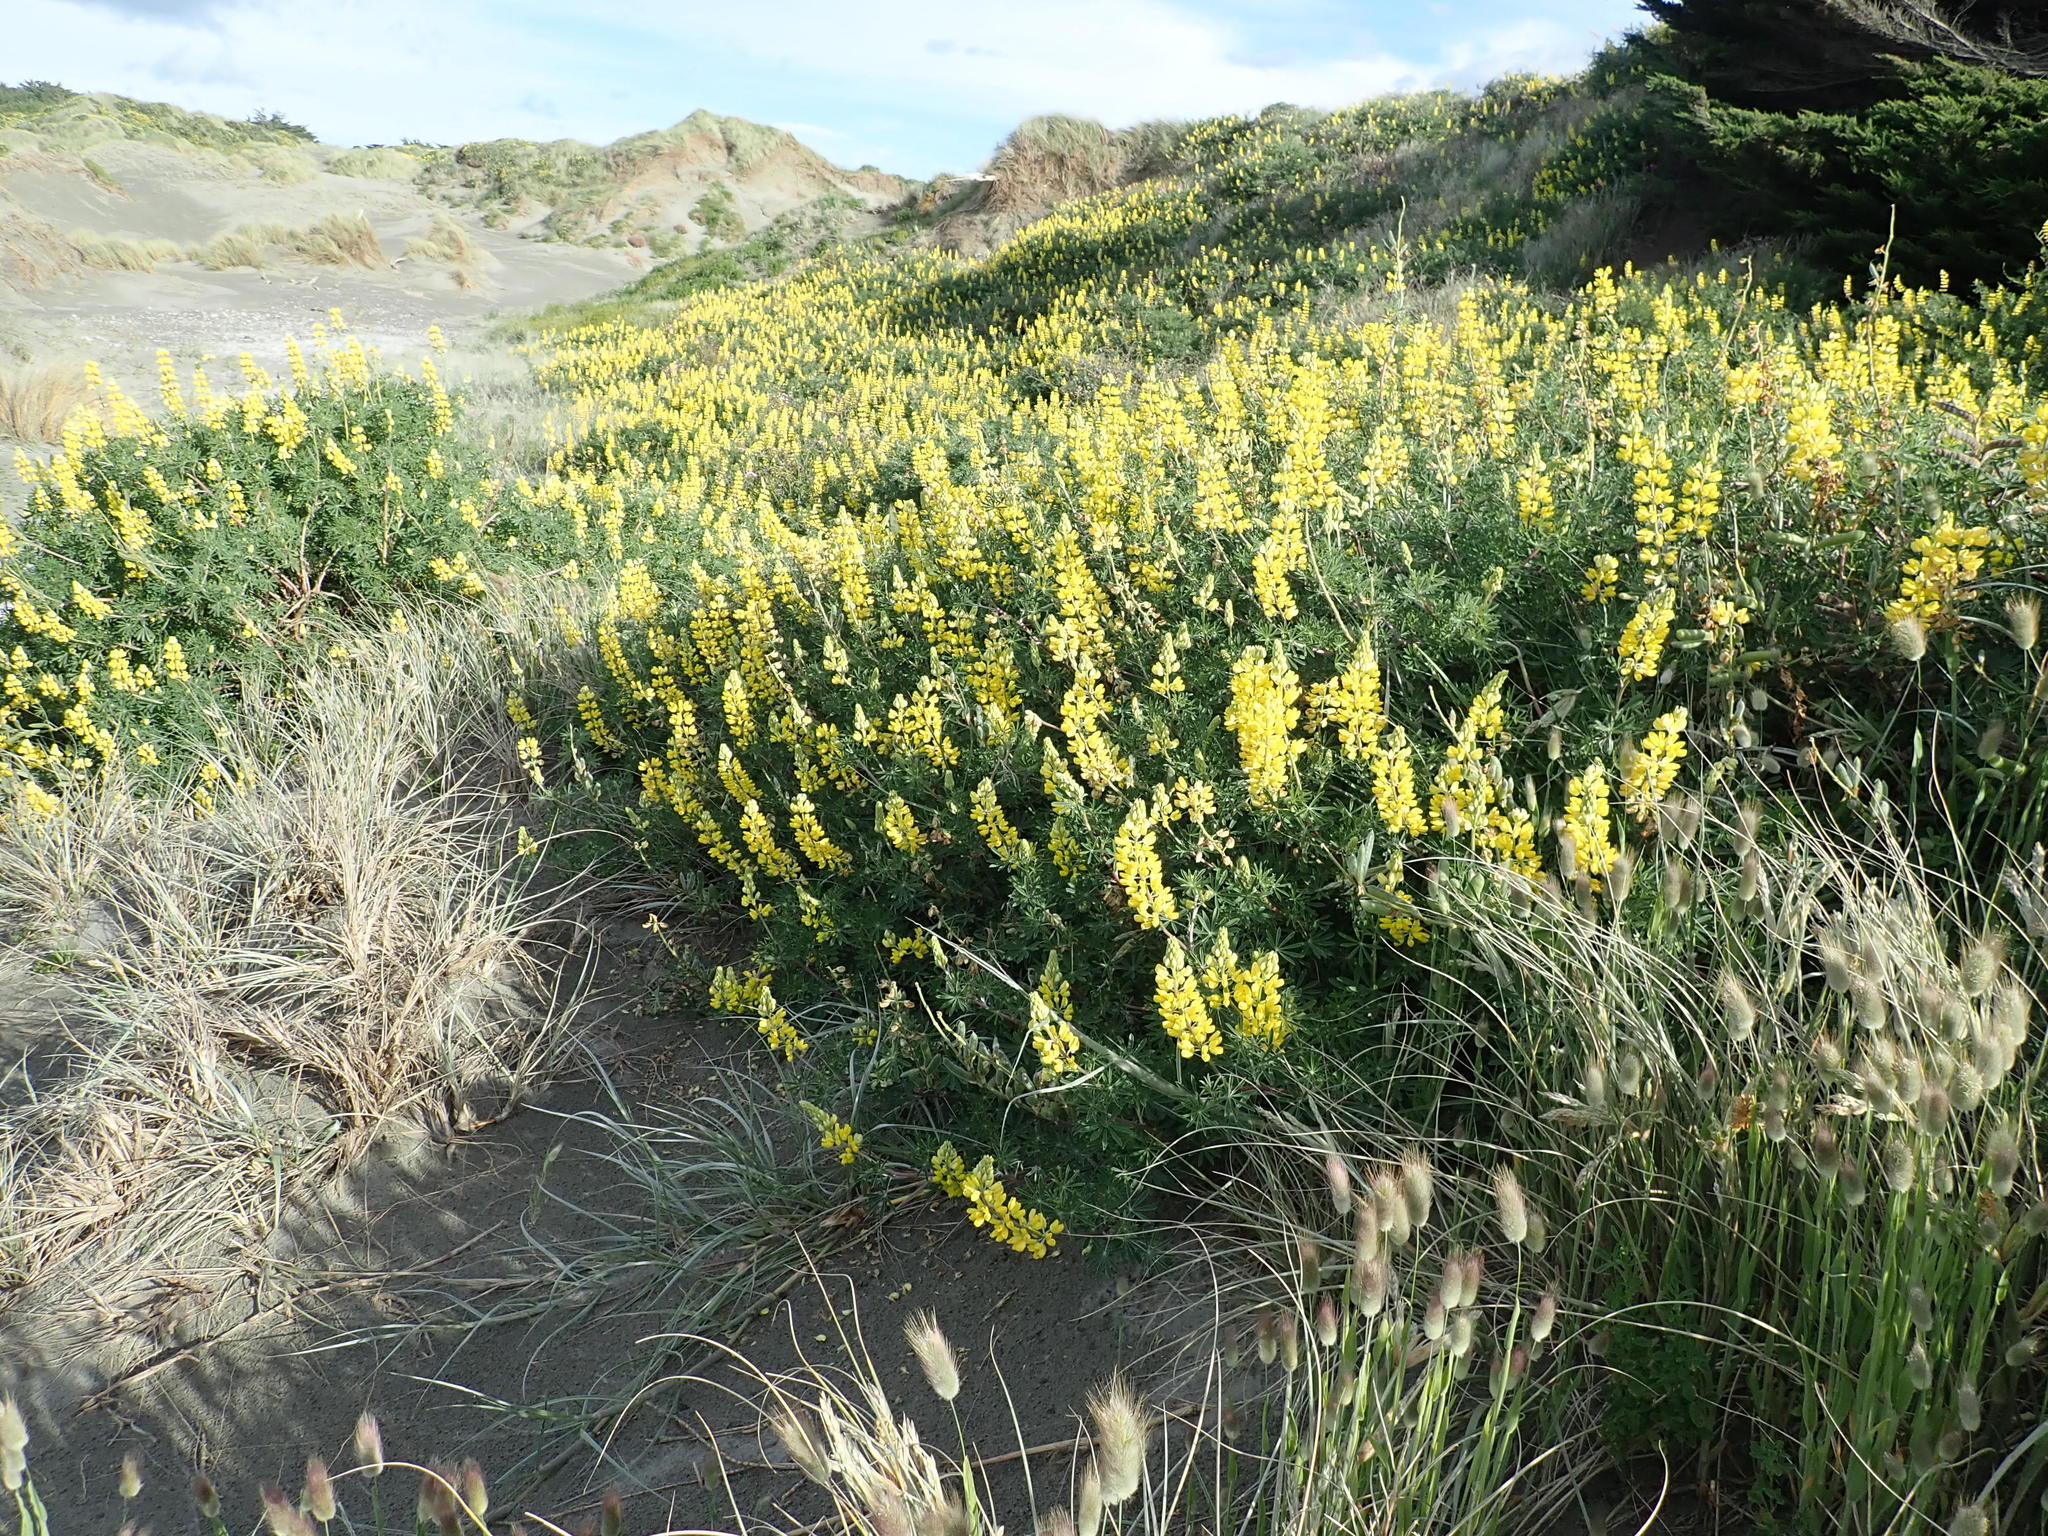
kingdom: Plantae
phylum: Tracheophyta
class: Magnoliopsida
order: Fabales
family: Fabaceae
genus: Lupinus
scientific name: Lupinus arboreus
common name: Yellow bush lupine
